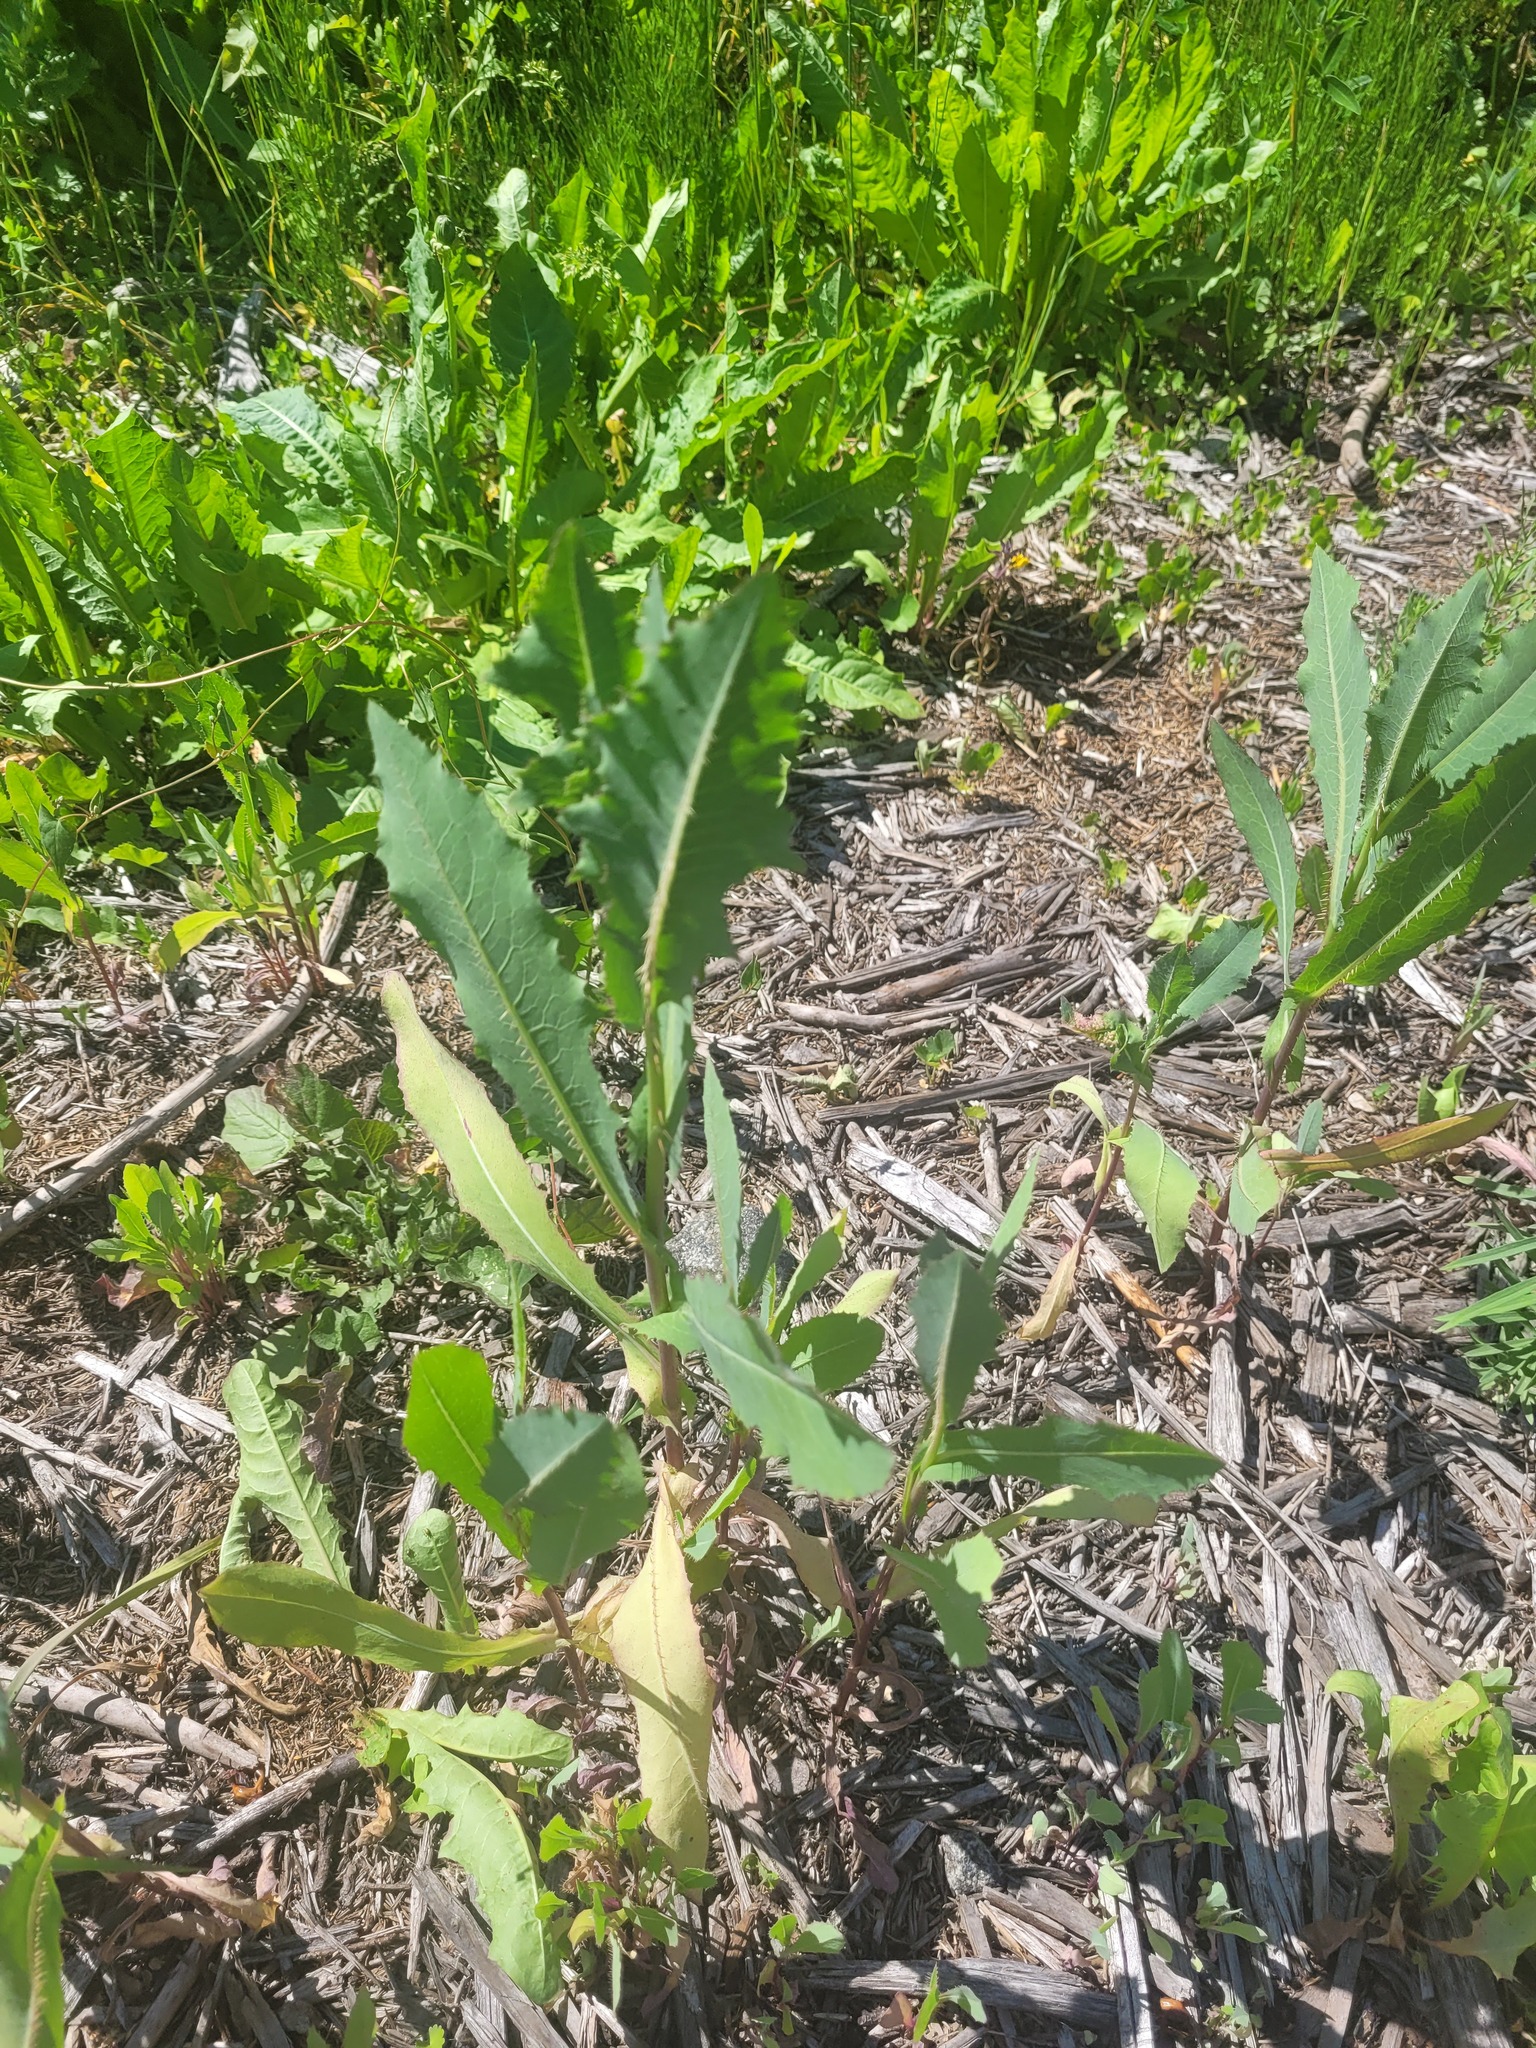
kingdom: Plantae
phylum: Tracheophyta
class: Magnoliopsida
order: Asterales
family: Asteraceae
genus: Lactuca
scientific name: Lactuca serriola
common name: Prickly lettuce
